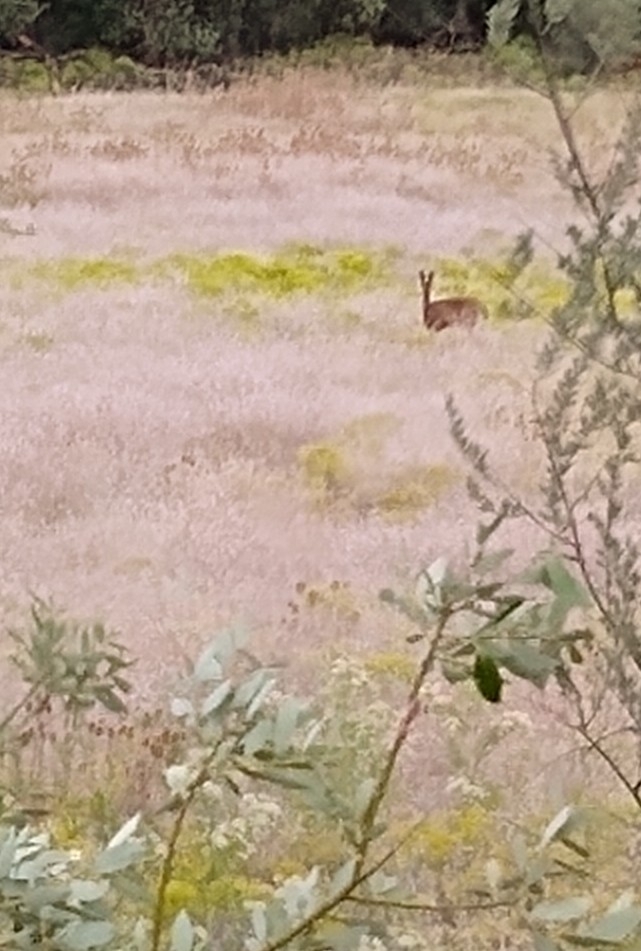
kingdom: Animalia
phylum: Chordata
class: Mammalia
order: Artiodactyla
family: Cervidae
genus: Odocoileus
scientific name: Odocoileus hemionus
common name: Mule deer
